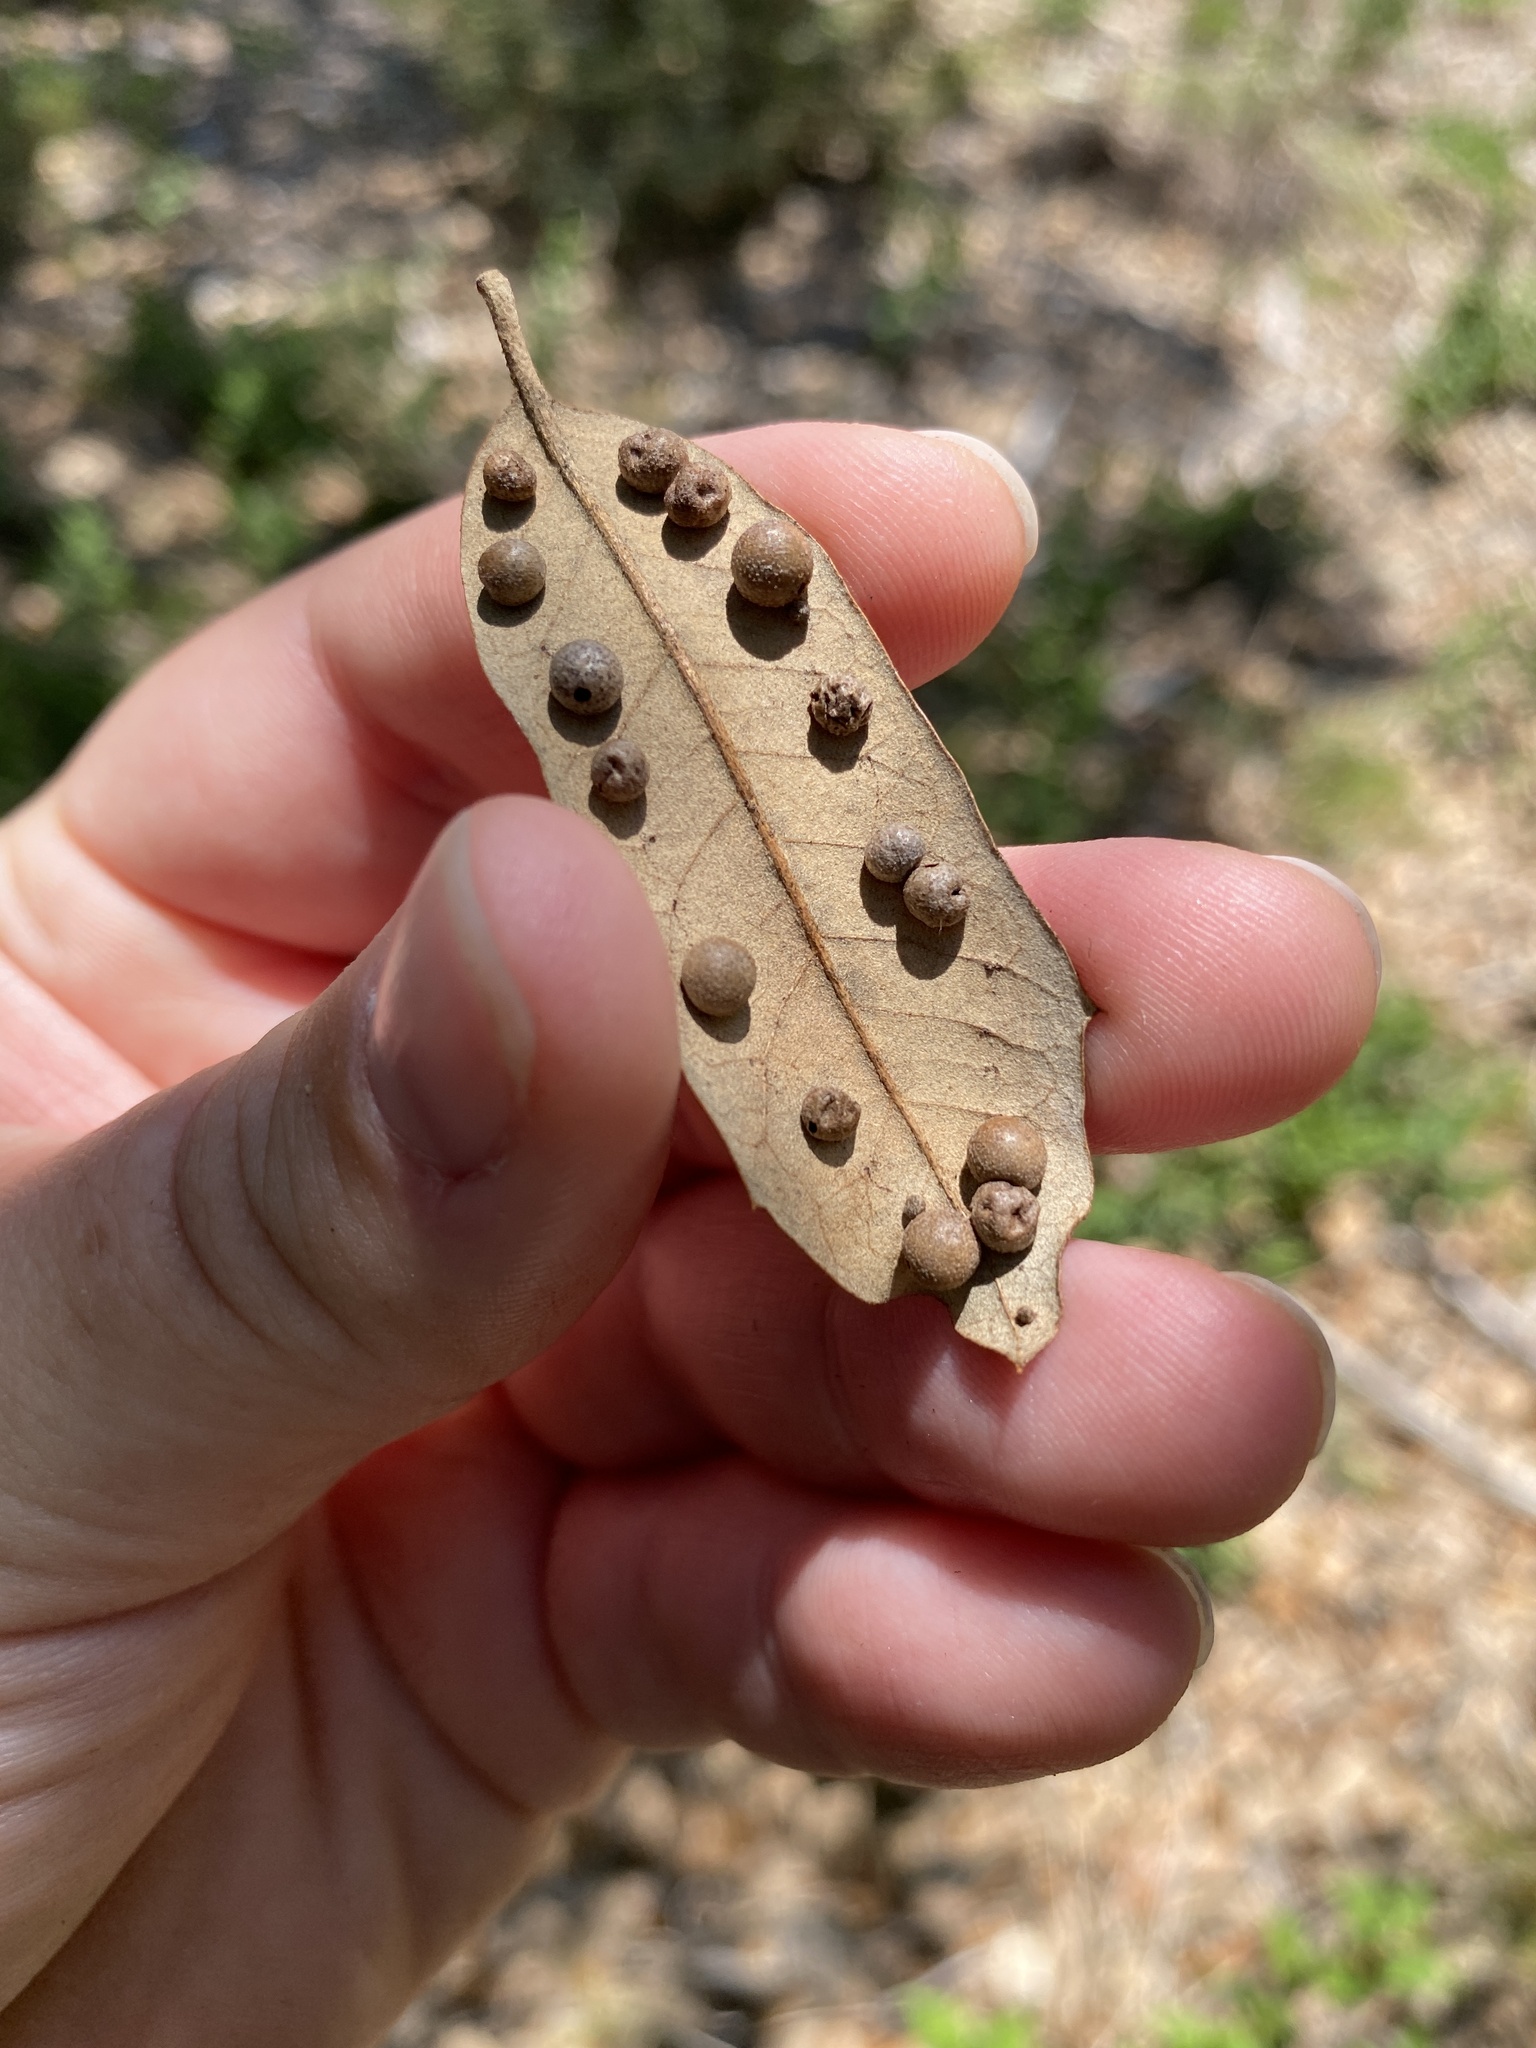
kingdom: Animalia
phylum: Arthropoda
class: Insecta
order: Hymenoptera
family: Cynipidae
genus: Belonocnema
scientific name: Belonocnema kinseyi
